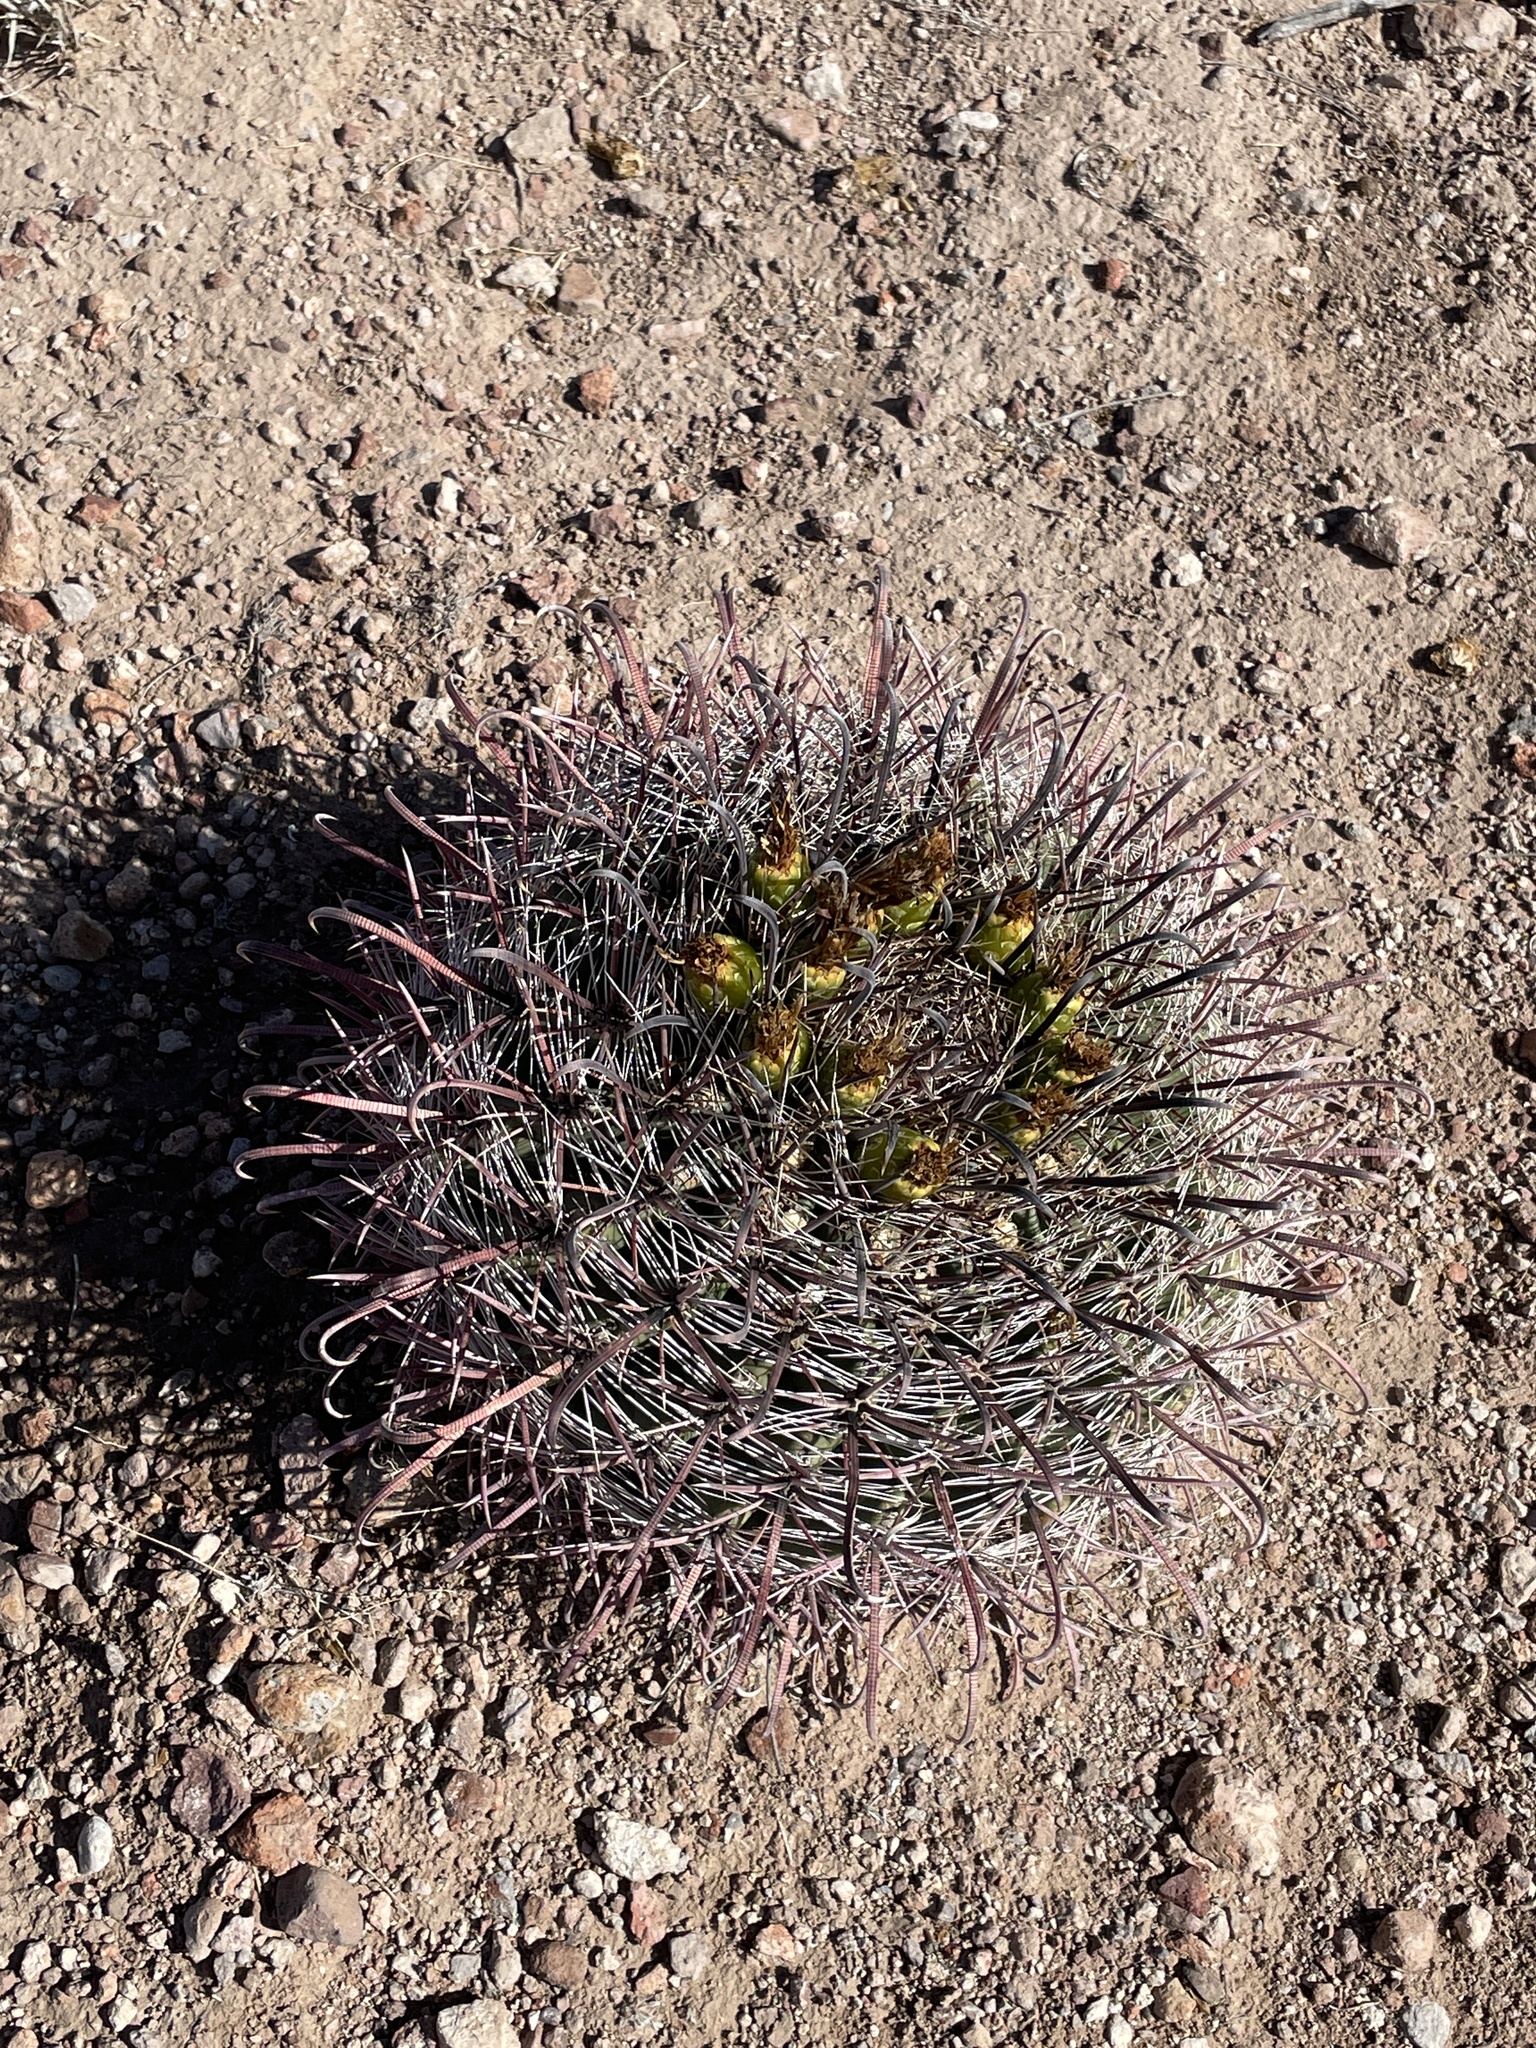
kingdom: Plantae
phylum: Tracheophyta
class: Magnoliopsida
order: Caryophyllales
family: Cactaceae
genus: Ferocactus
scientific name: Ferocactus wislizeni
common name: Candy barrel cactus
